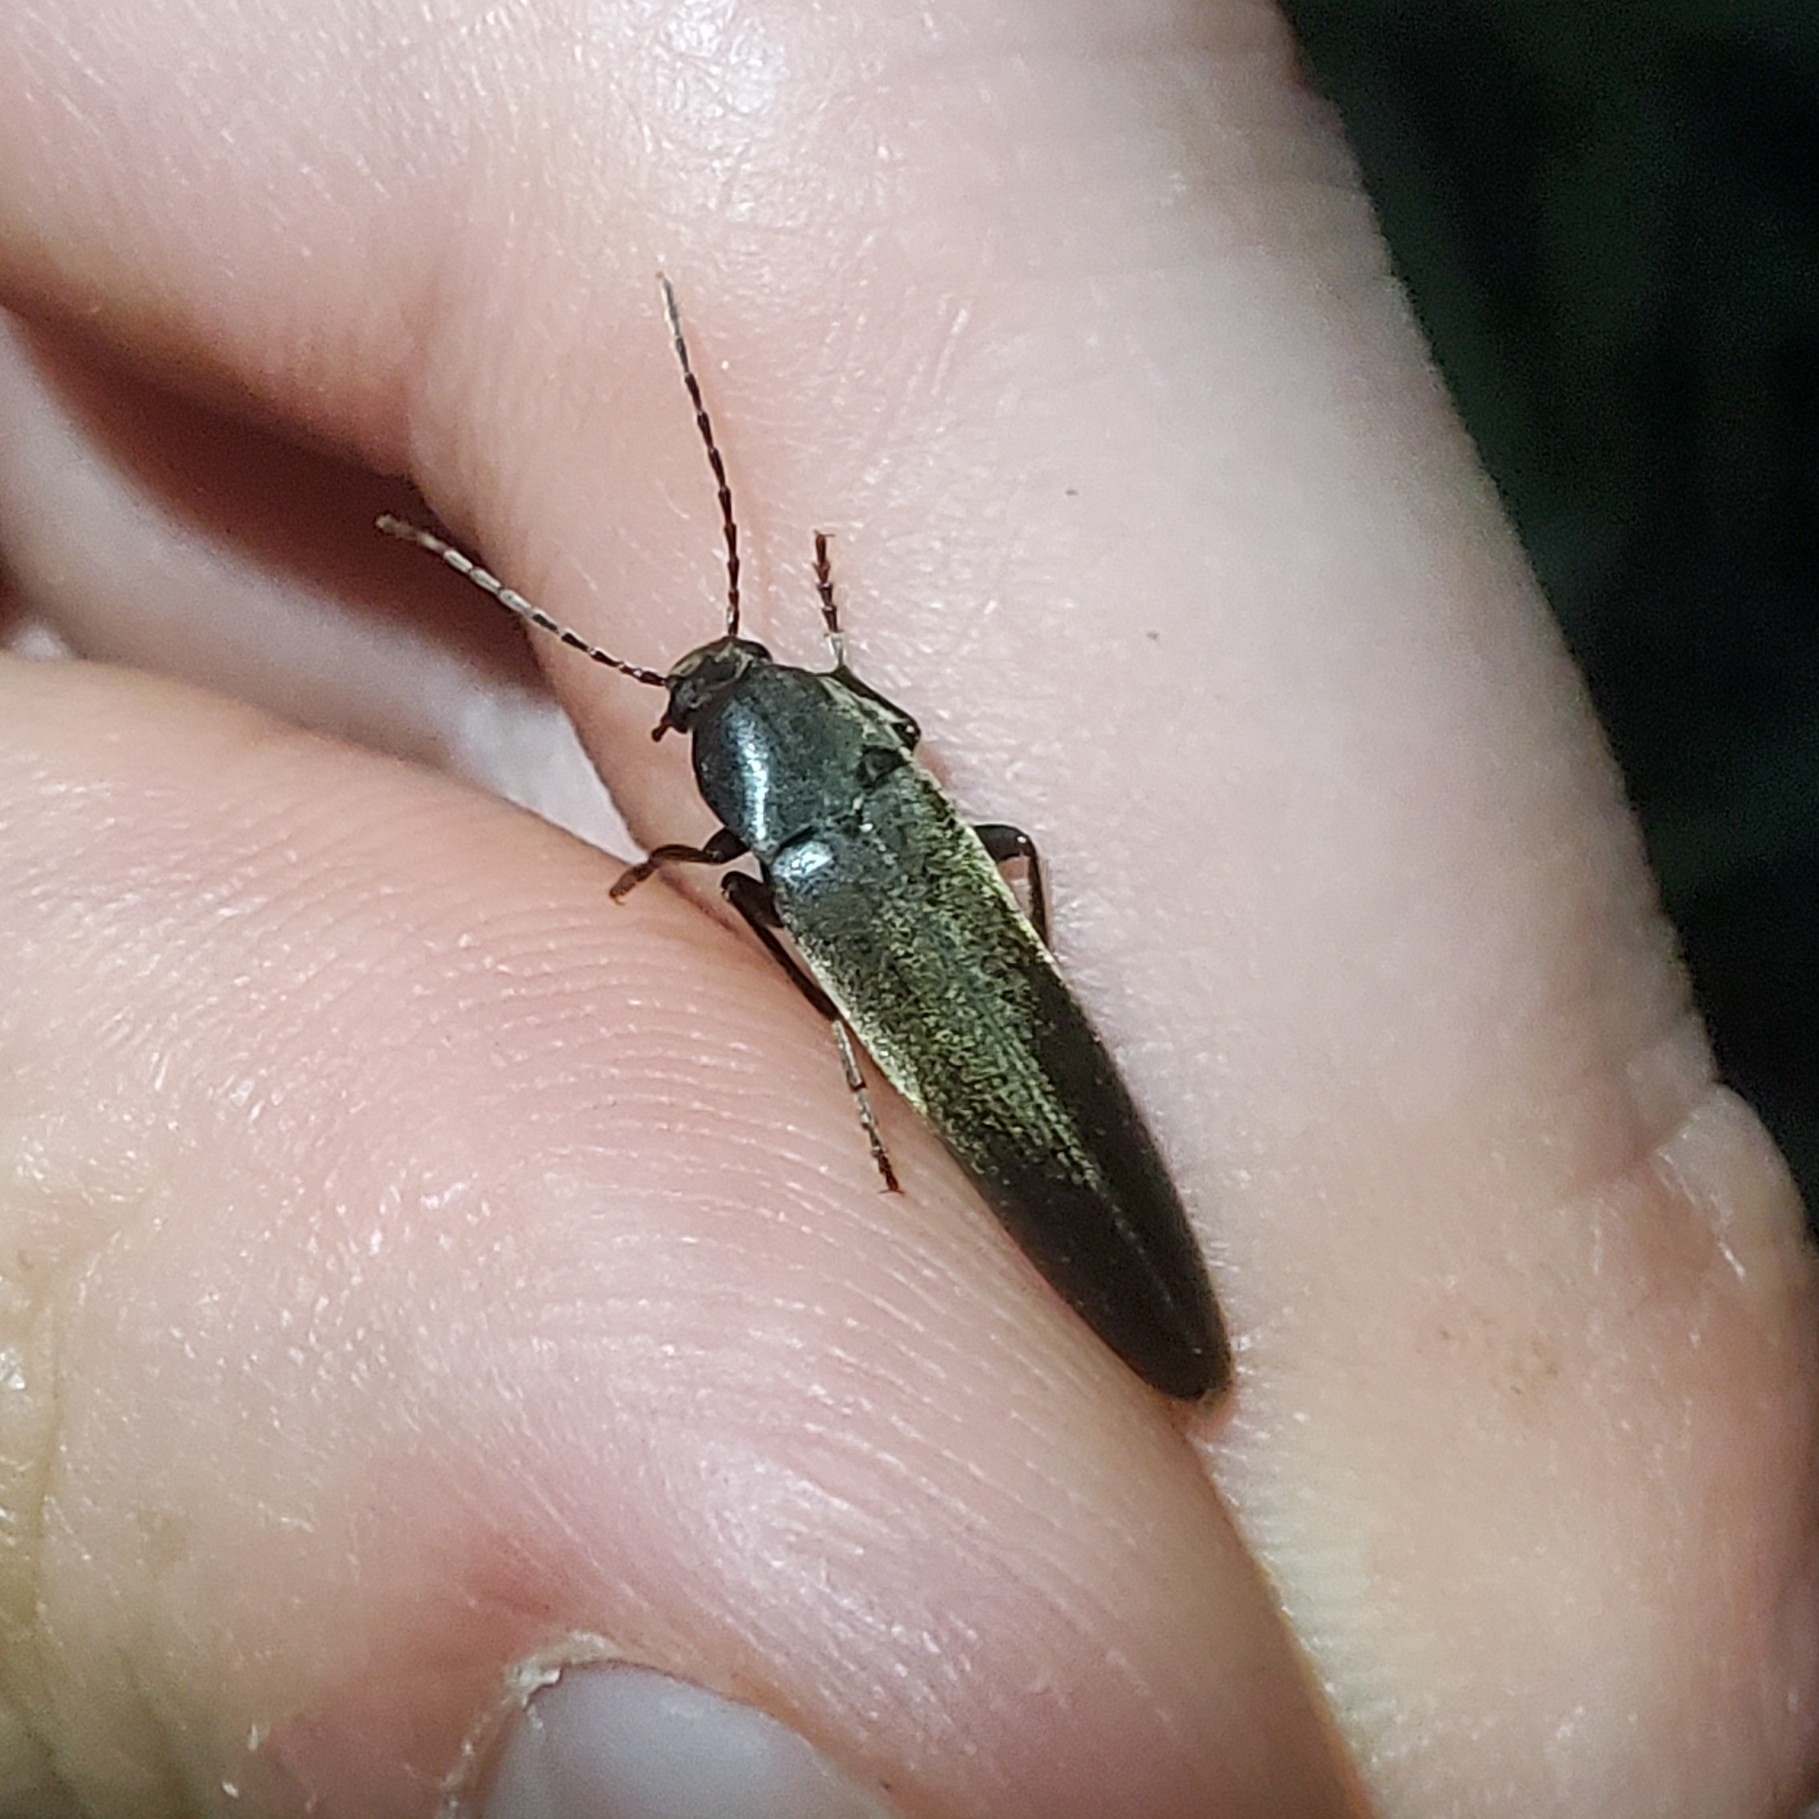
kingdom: Animalia
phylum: Arthropoda
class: Insecta
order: Coleoptera
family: Melandryidae
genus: Enchodes
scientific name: Enchodes sericea
